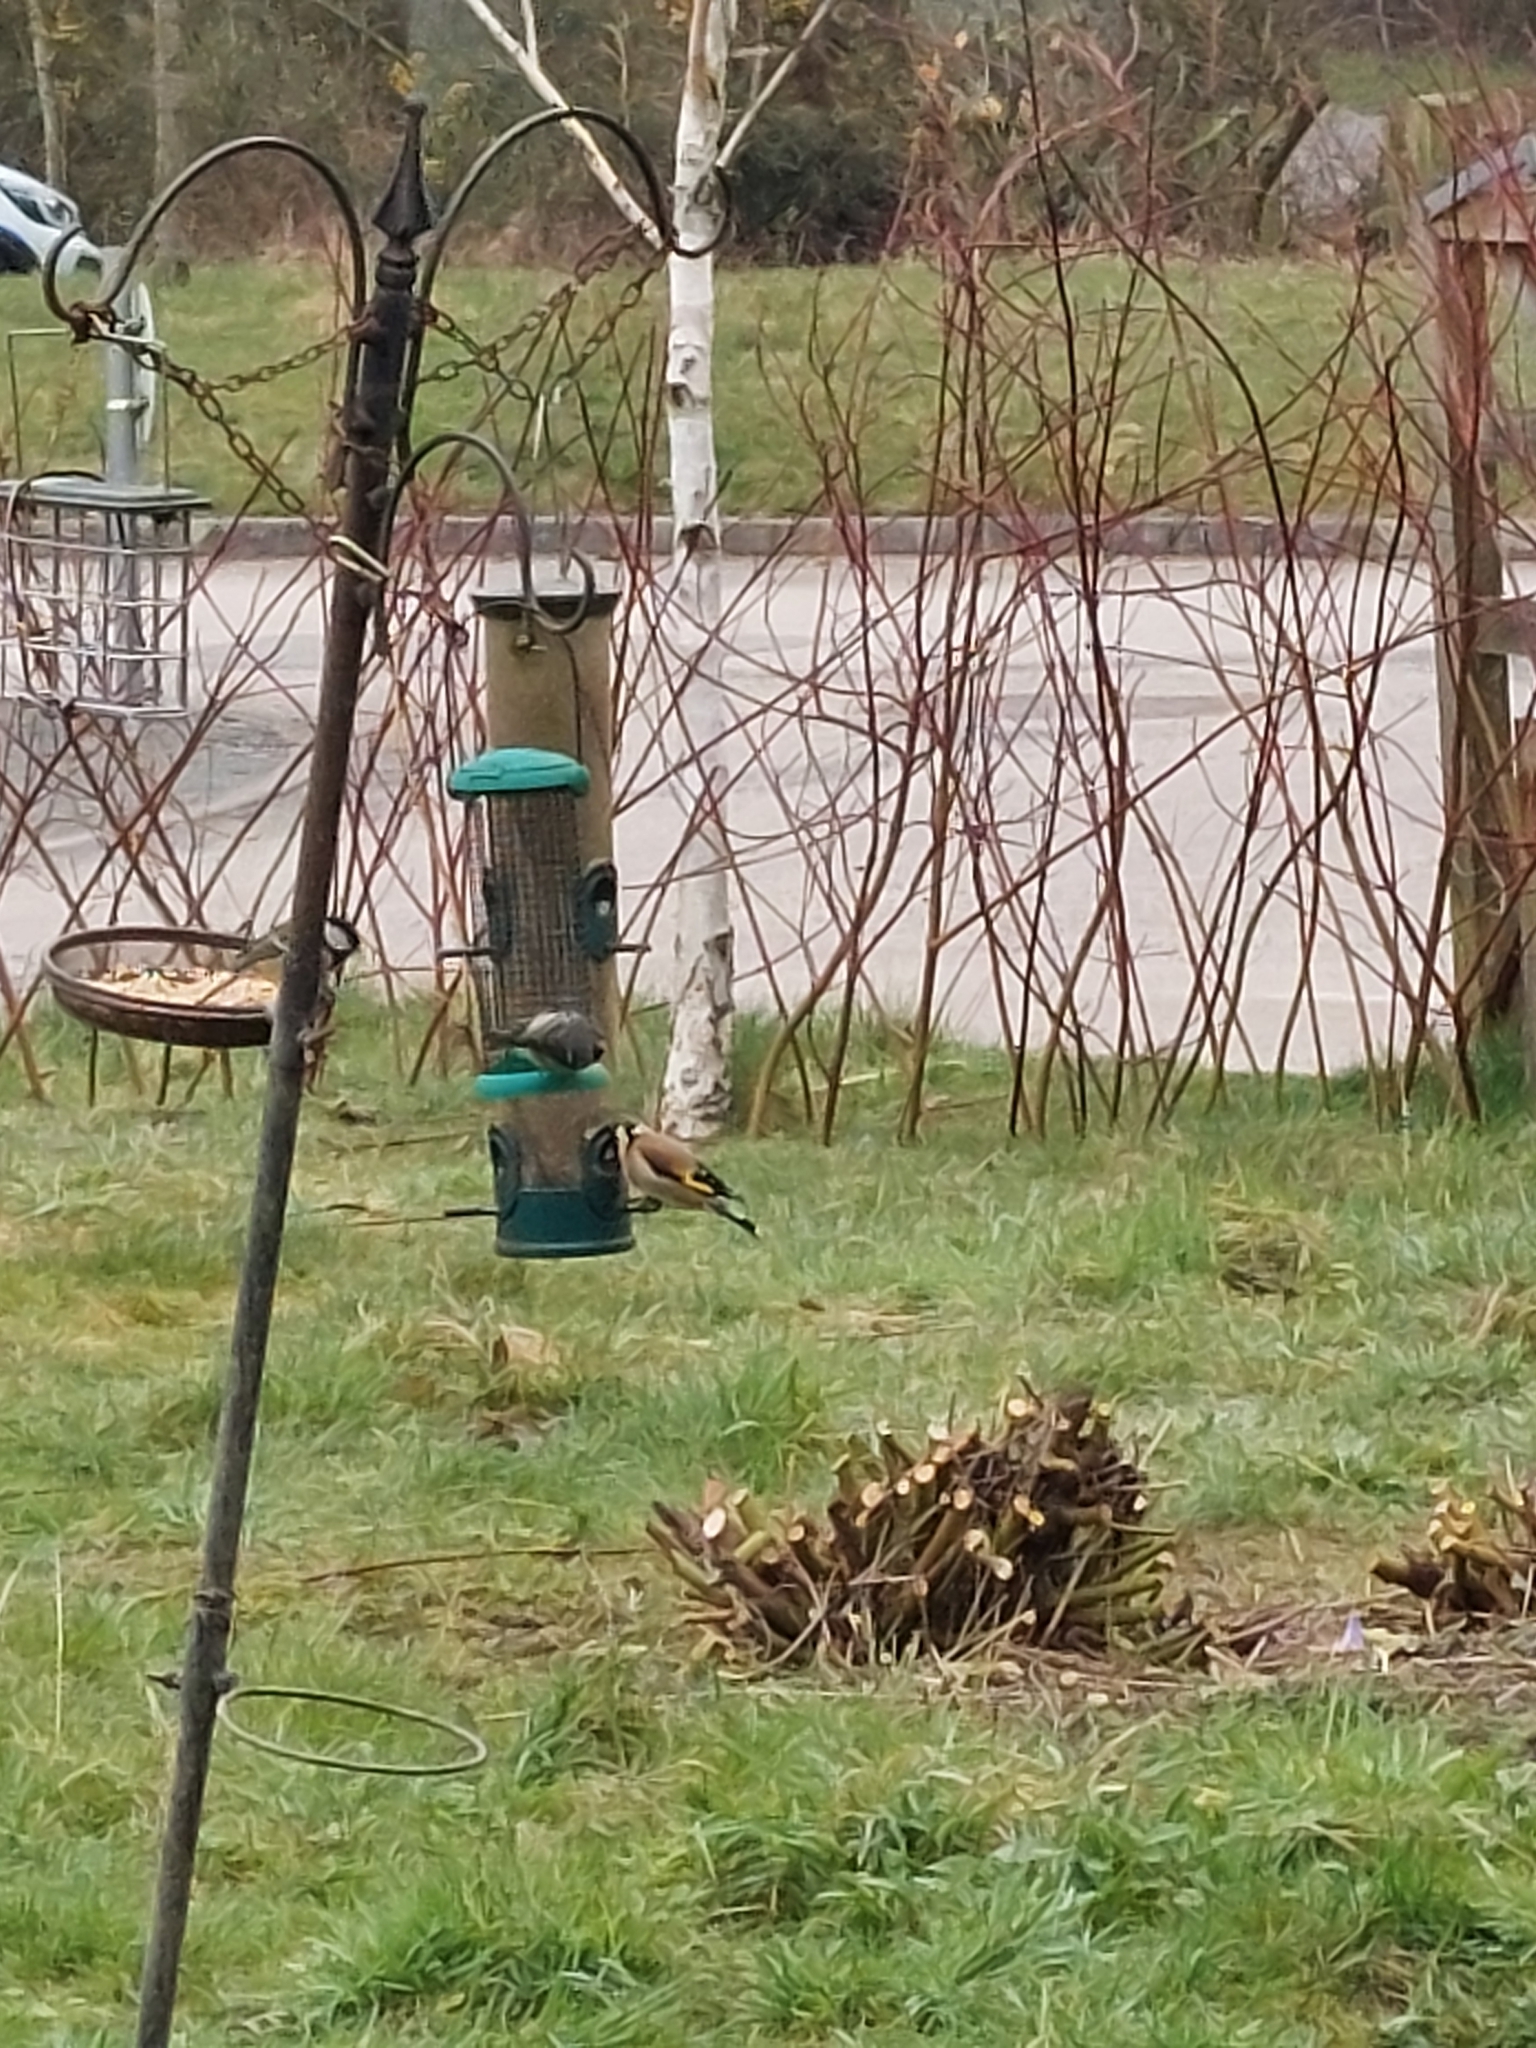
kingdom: Animalia
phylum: Chordata
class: Aves
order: Passeriformes
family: Fringillidae
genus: Carduelis
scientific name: Carduelis carduelis
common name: European goldfinch
